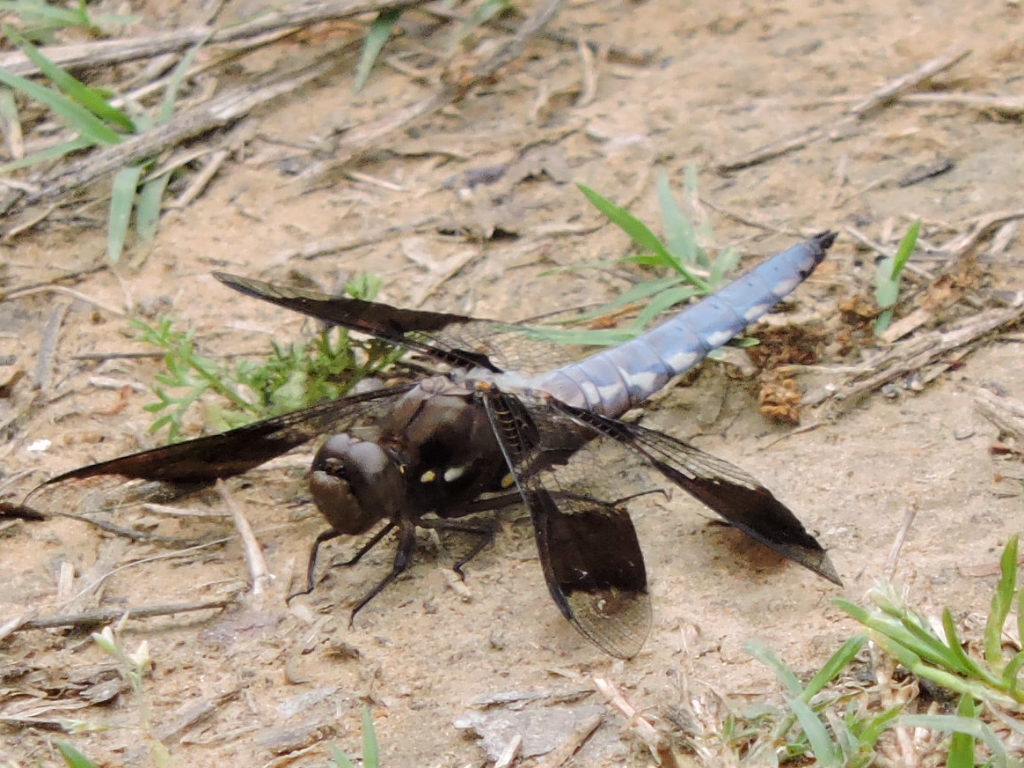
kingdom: Animalia
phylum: Arthropoda
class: Insecta
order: Odonata
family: Libellulidae
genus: Plathemis
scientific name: Plathemis lydia
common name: Common whitetail
